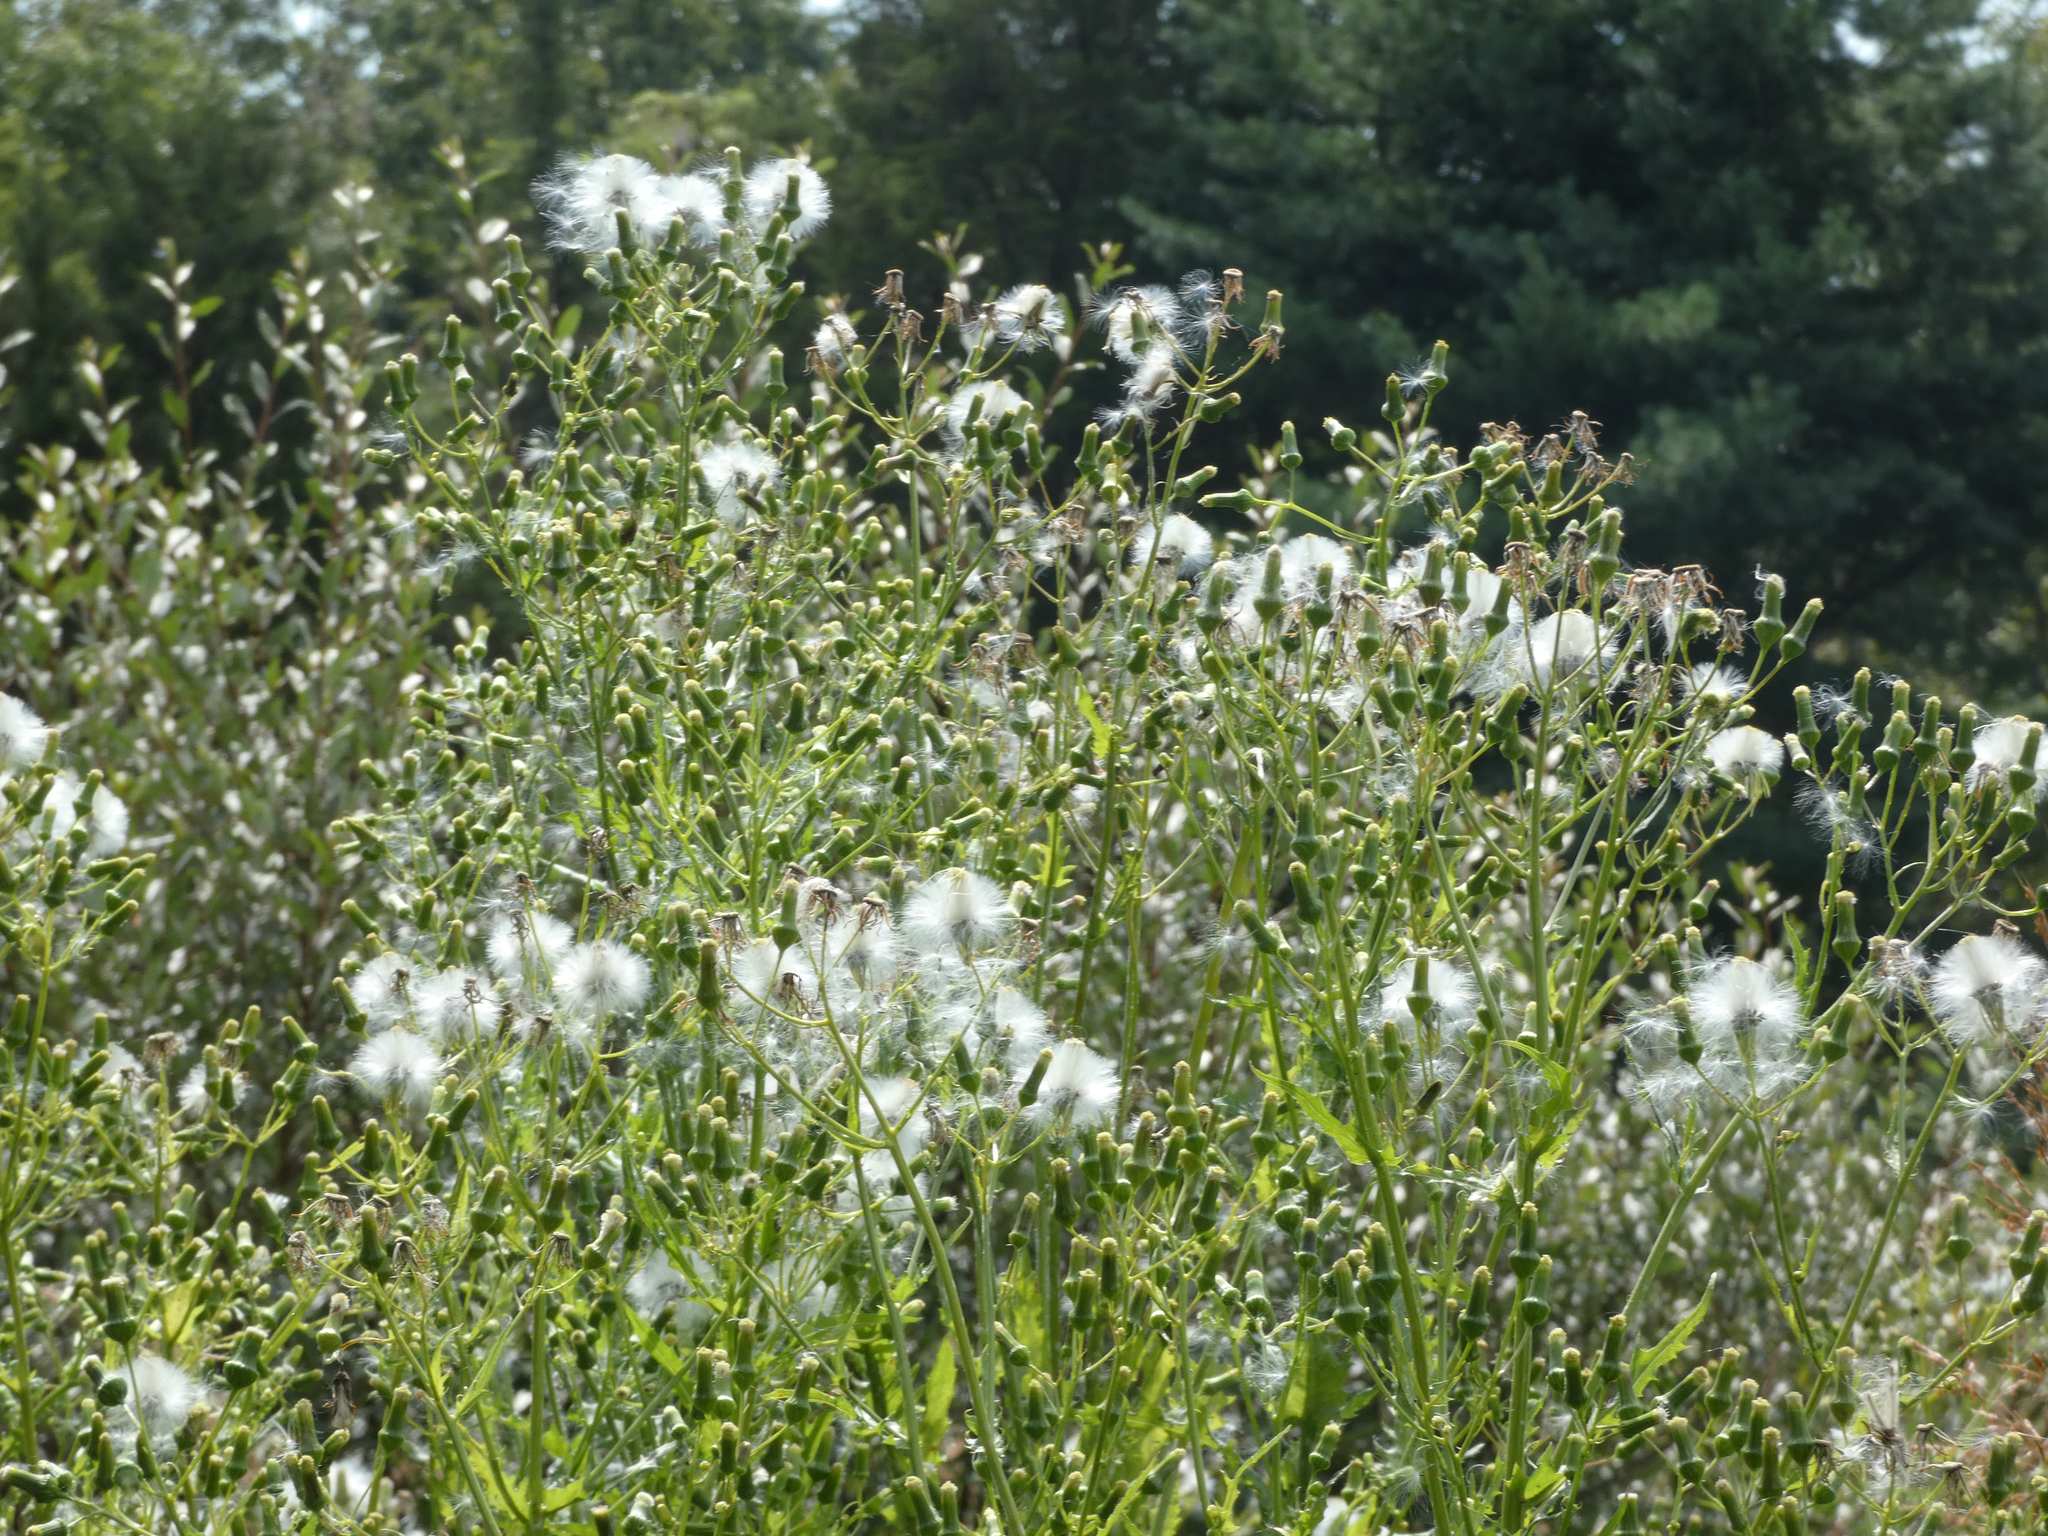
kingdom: Plantae
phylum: Tracheophyta
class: Magnoliopsida
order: Asterales
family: Asteraceae
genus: Erechtites
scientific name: Erechtites hieraciifolius
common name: American burnweed
